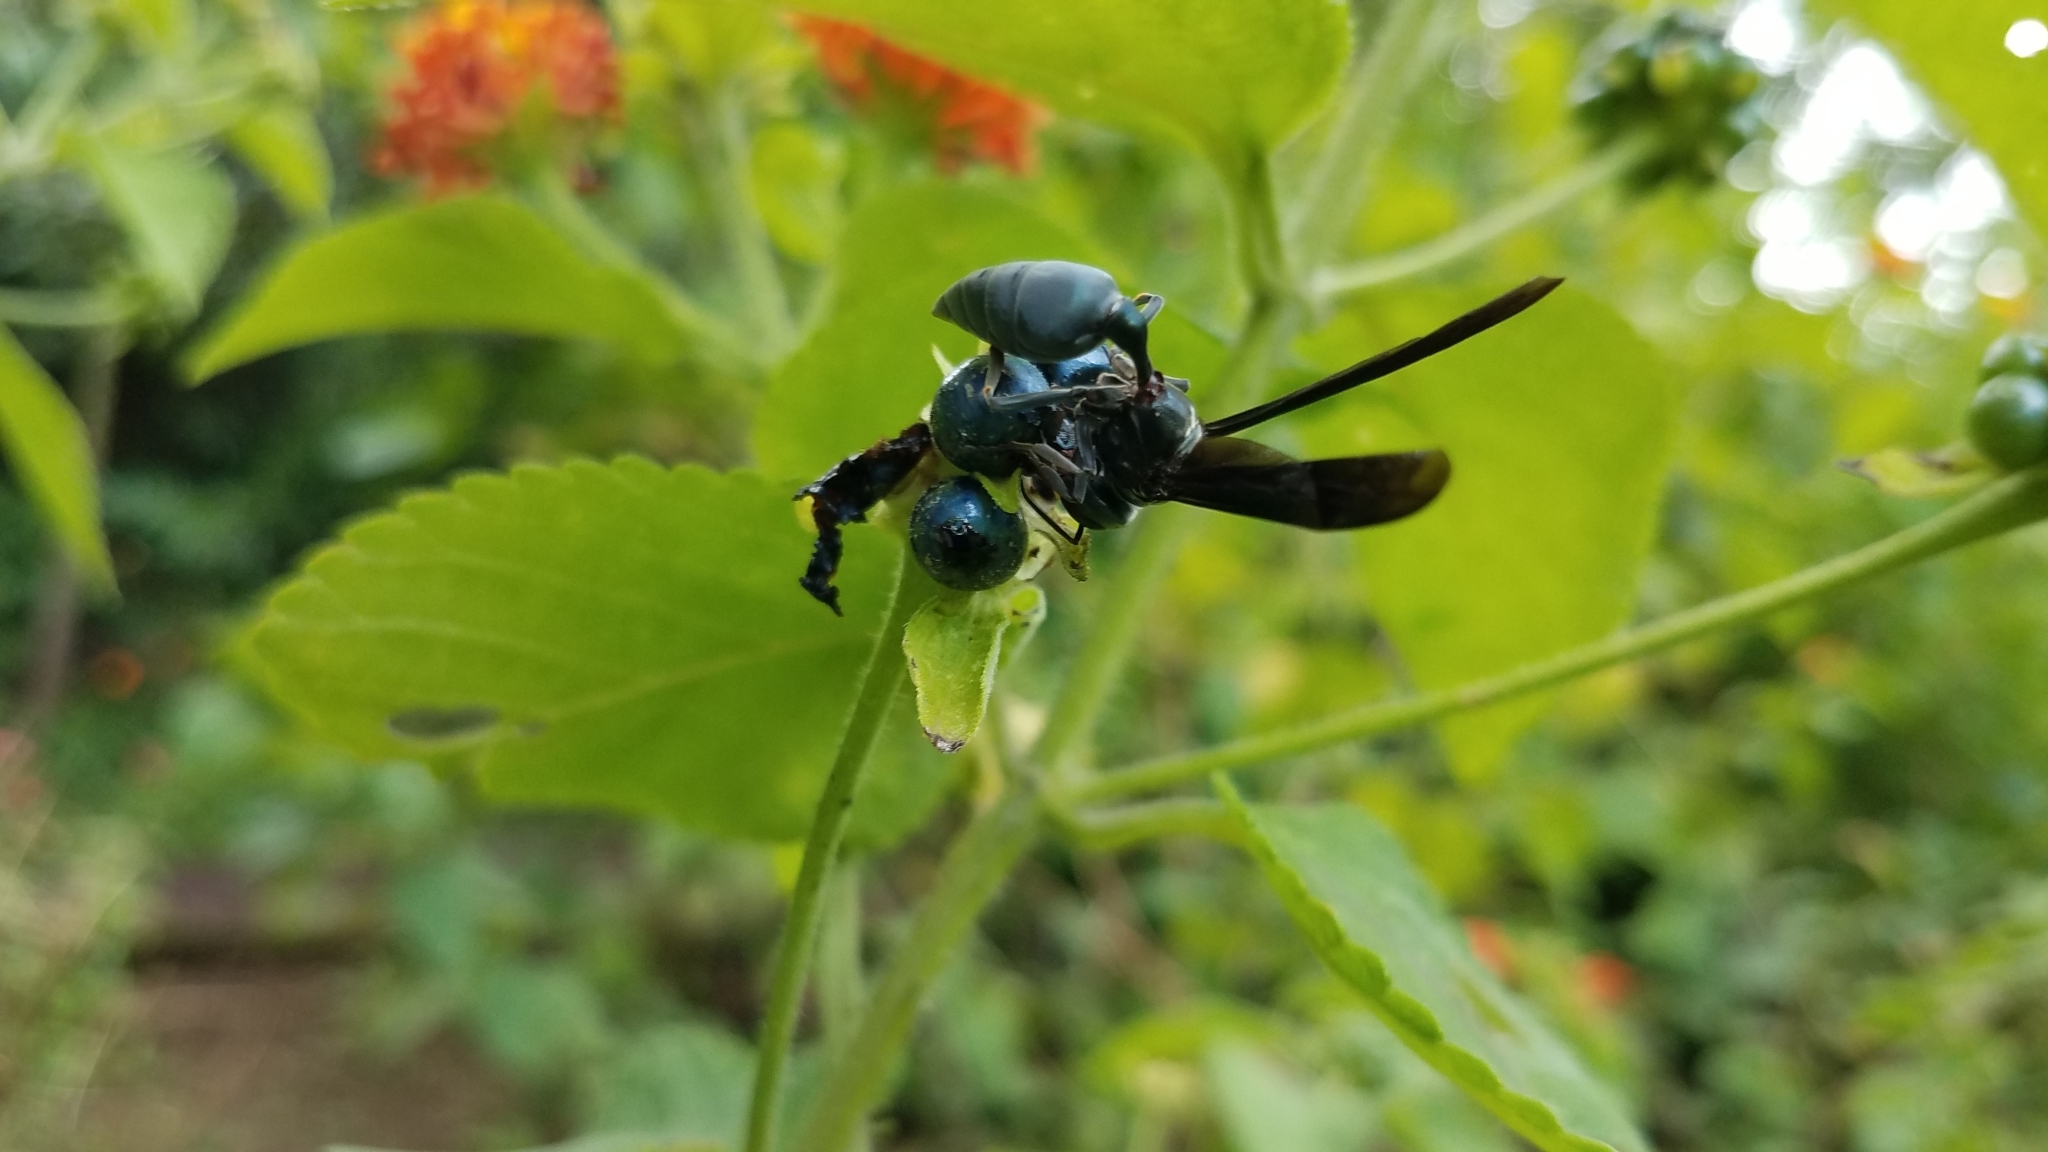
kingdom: Animalia
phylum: Arthropoda
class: Insecta
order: Hymenoptera
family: Vespidae
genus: Synoeca
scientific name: Synoeca septentrionalis
